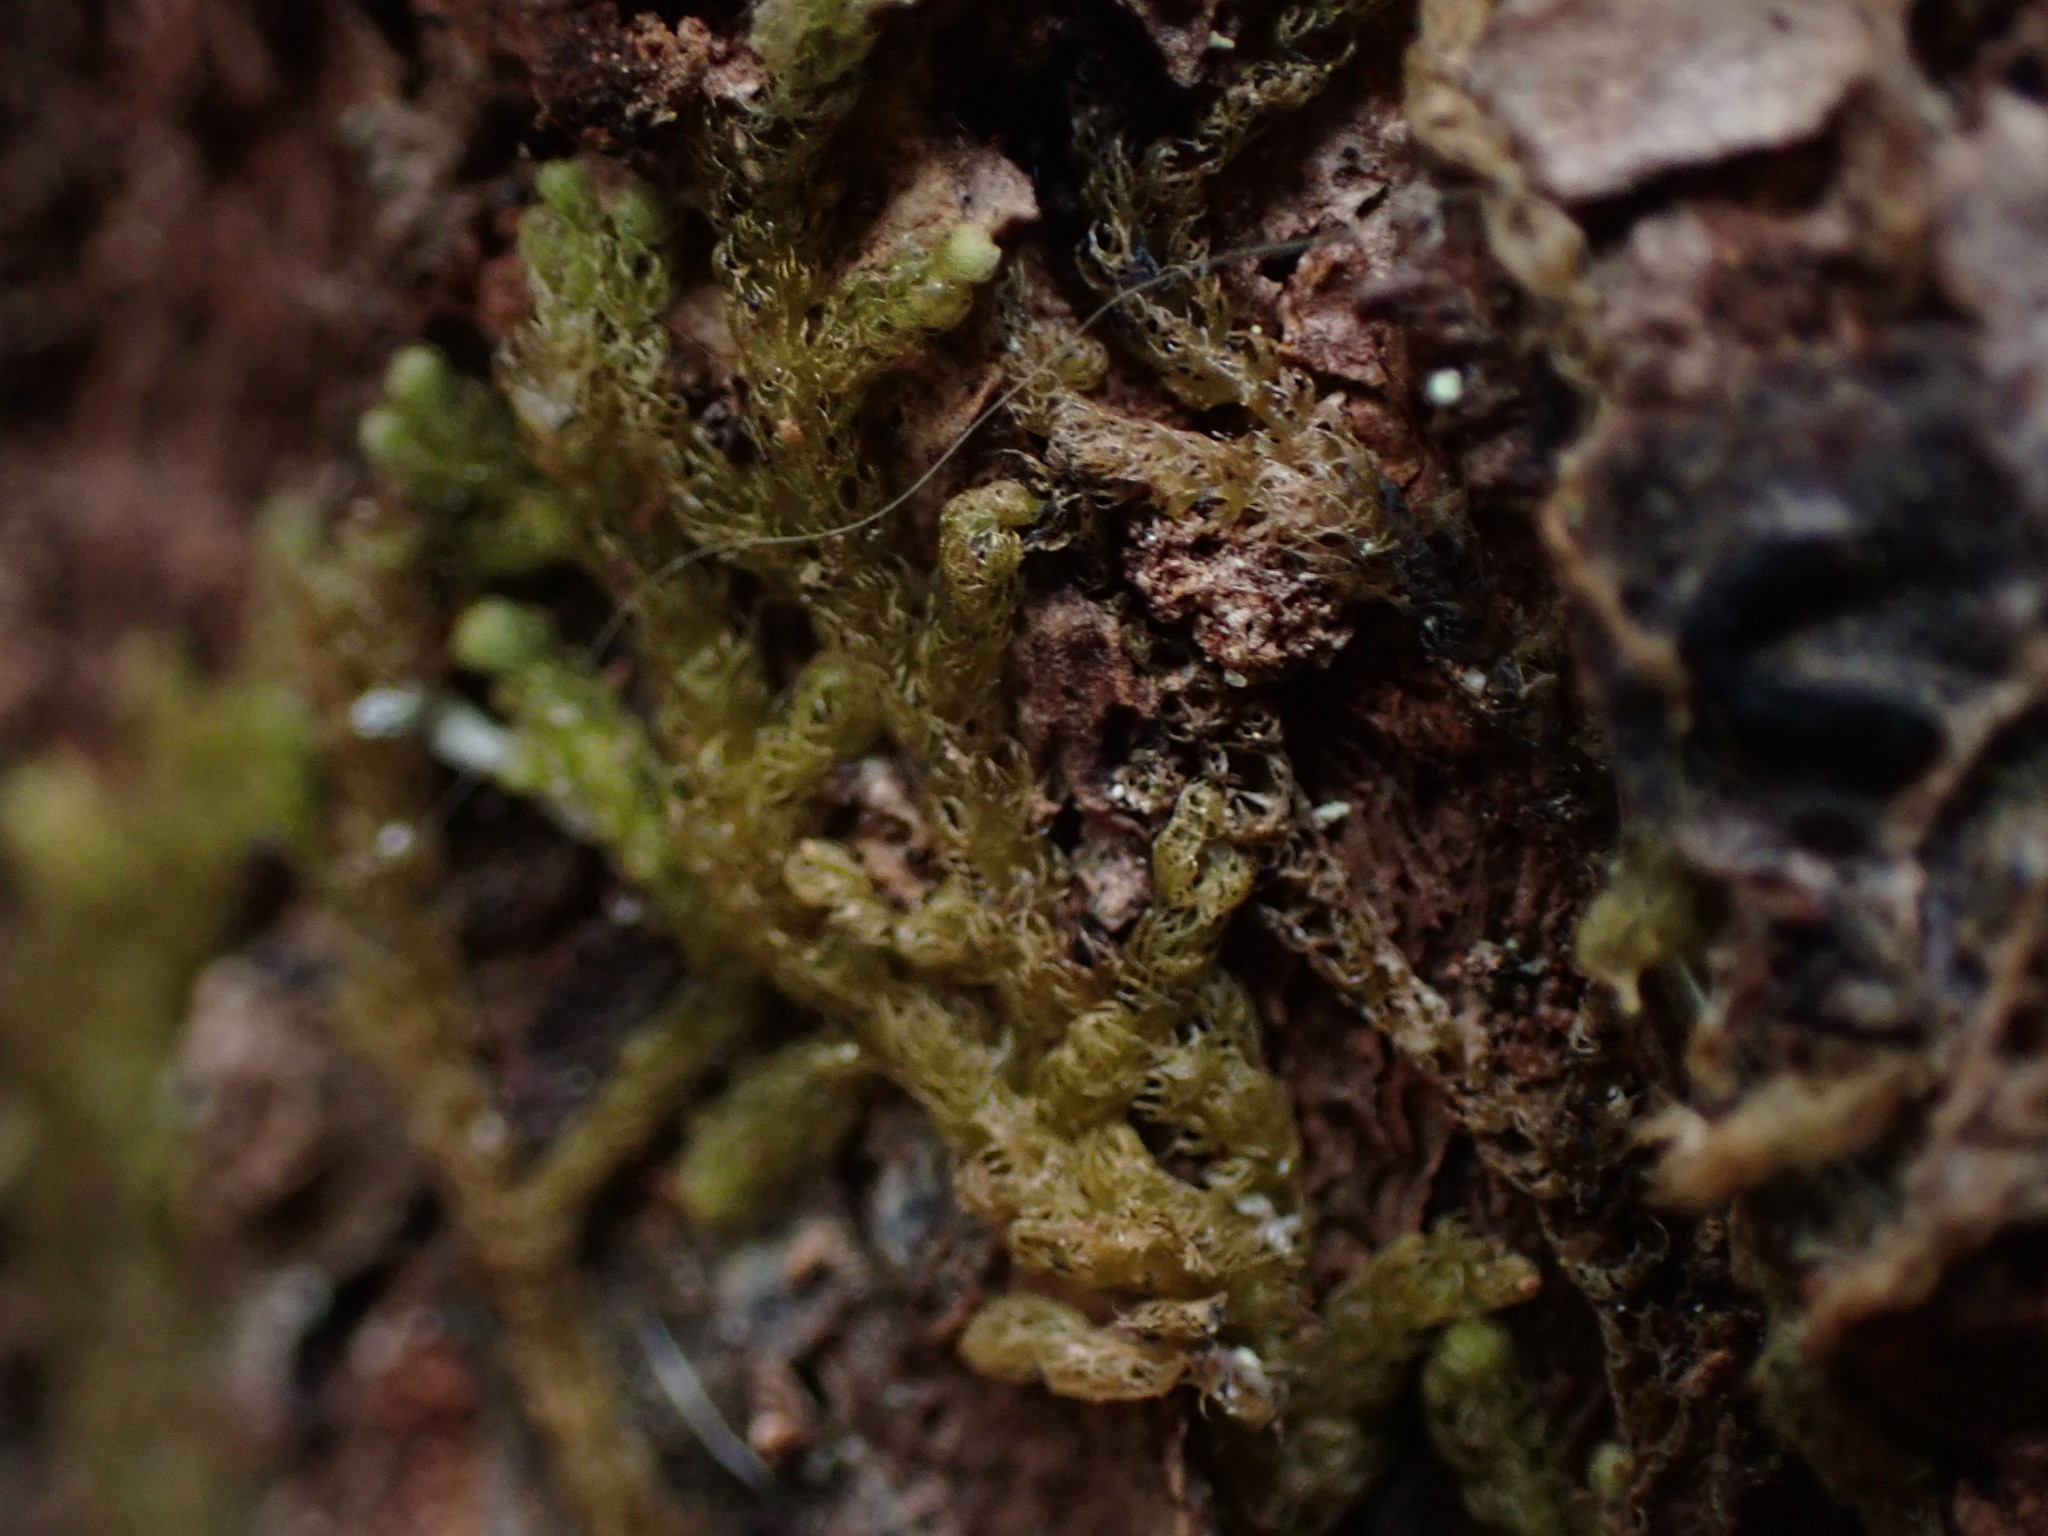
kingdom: Plantae
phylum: Marchantiophyta
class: Jungermanniopsida
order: Ptilidiales
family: Ptilidiaceae
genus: Ptilidium
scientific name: Ptilidium californicum
